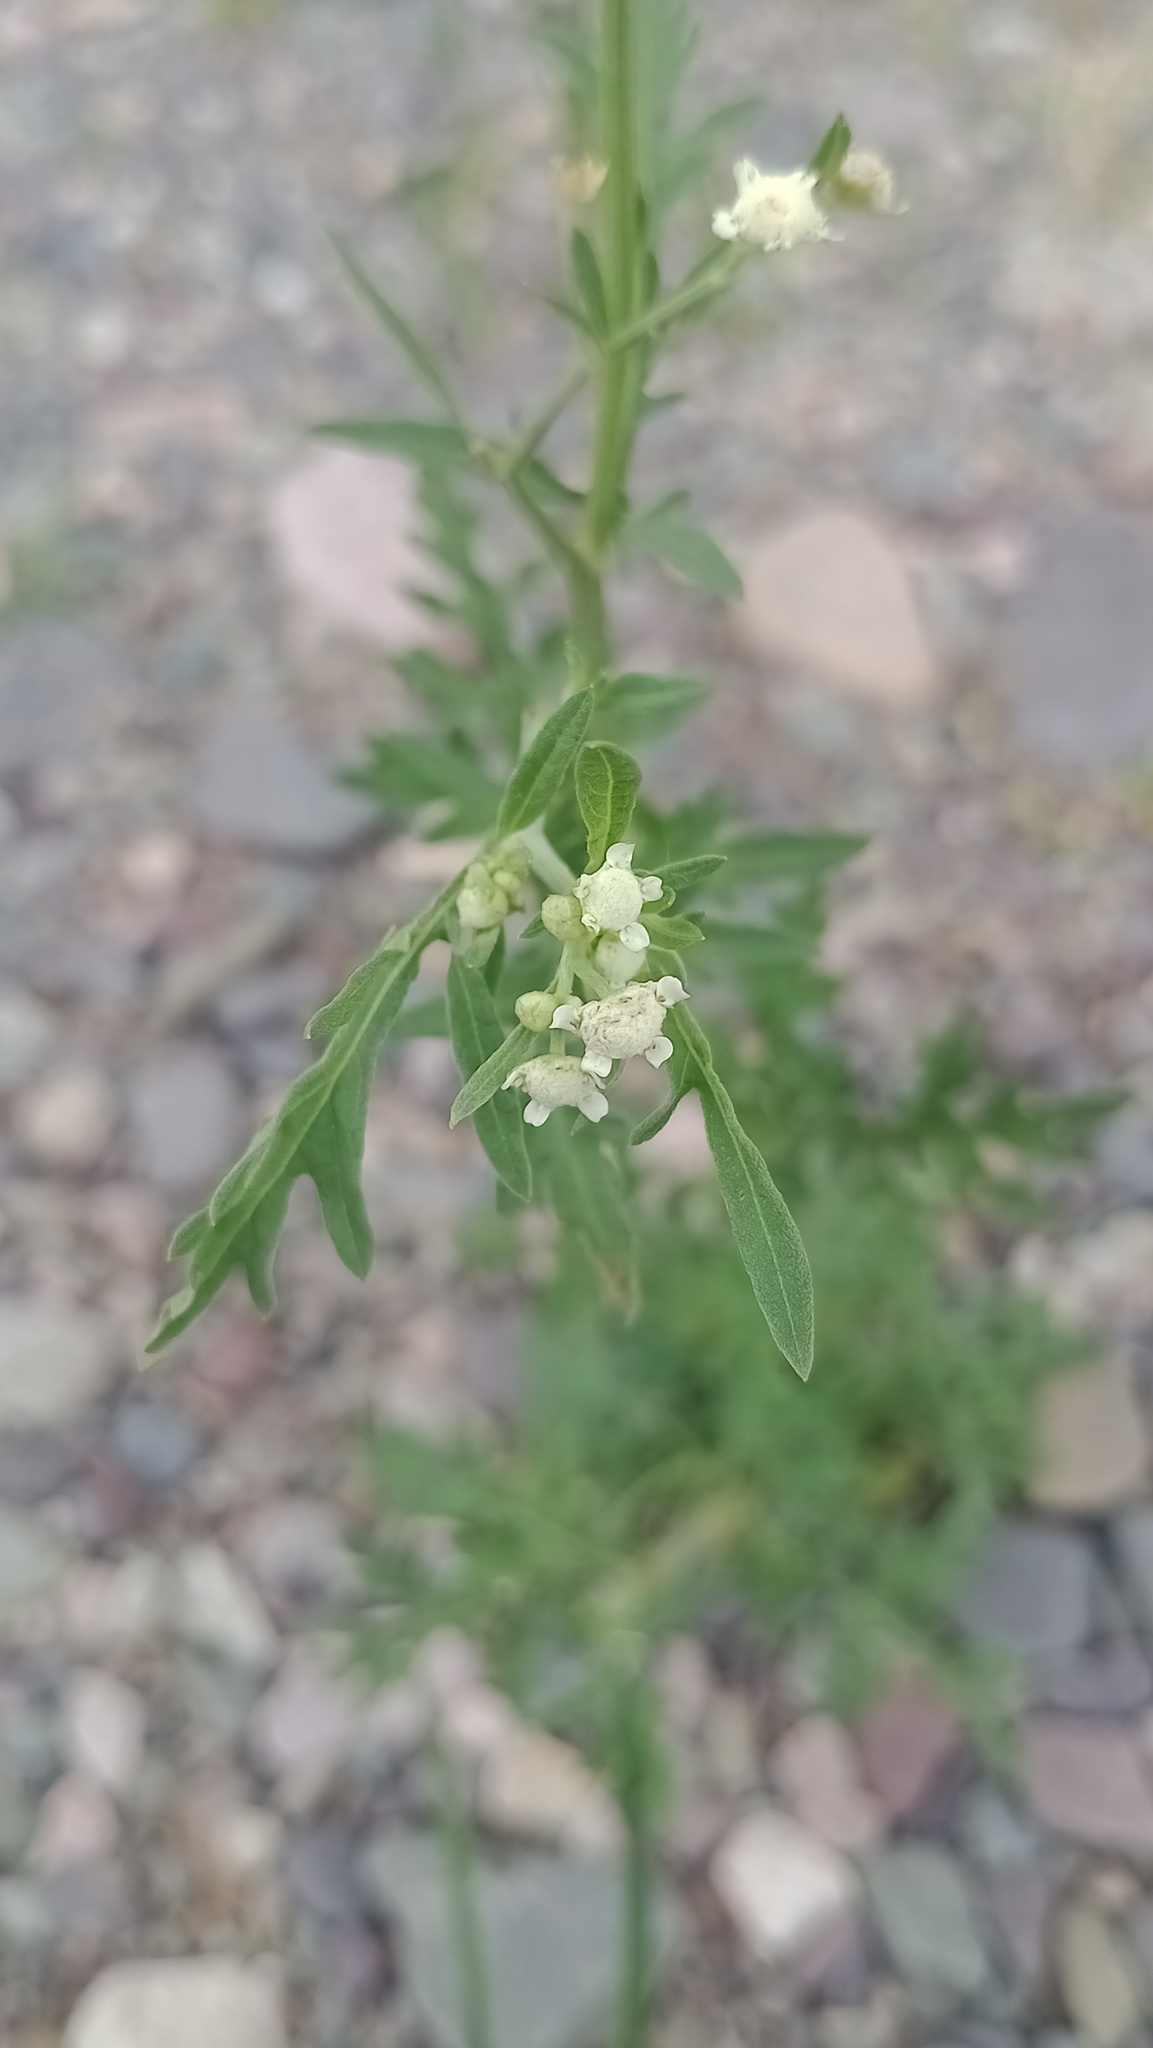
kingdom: Plantae
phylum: Tracheophyta
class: Magnoliopsida
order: Asterales
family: Asteraceae
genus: Parthenium
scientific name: Parthenium hysterophorus
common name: Santa maria feverfew
